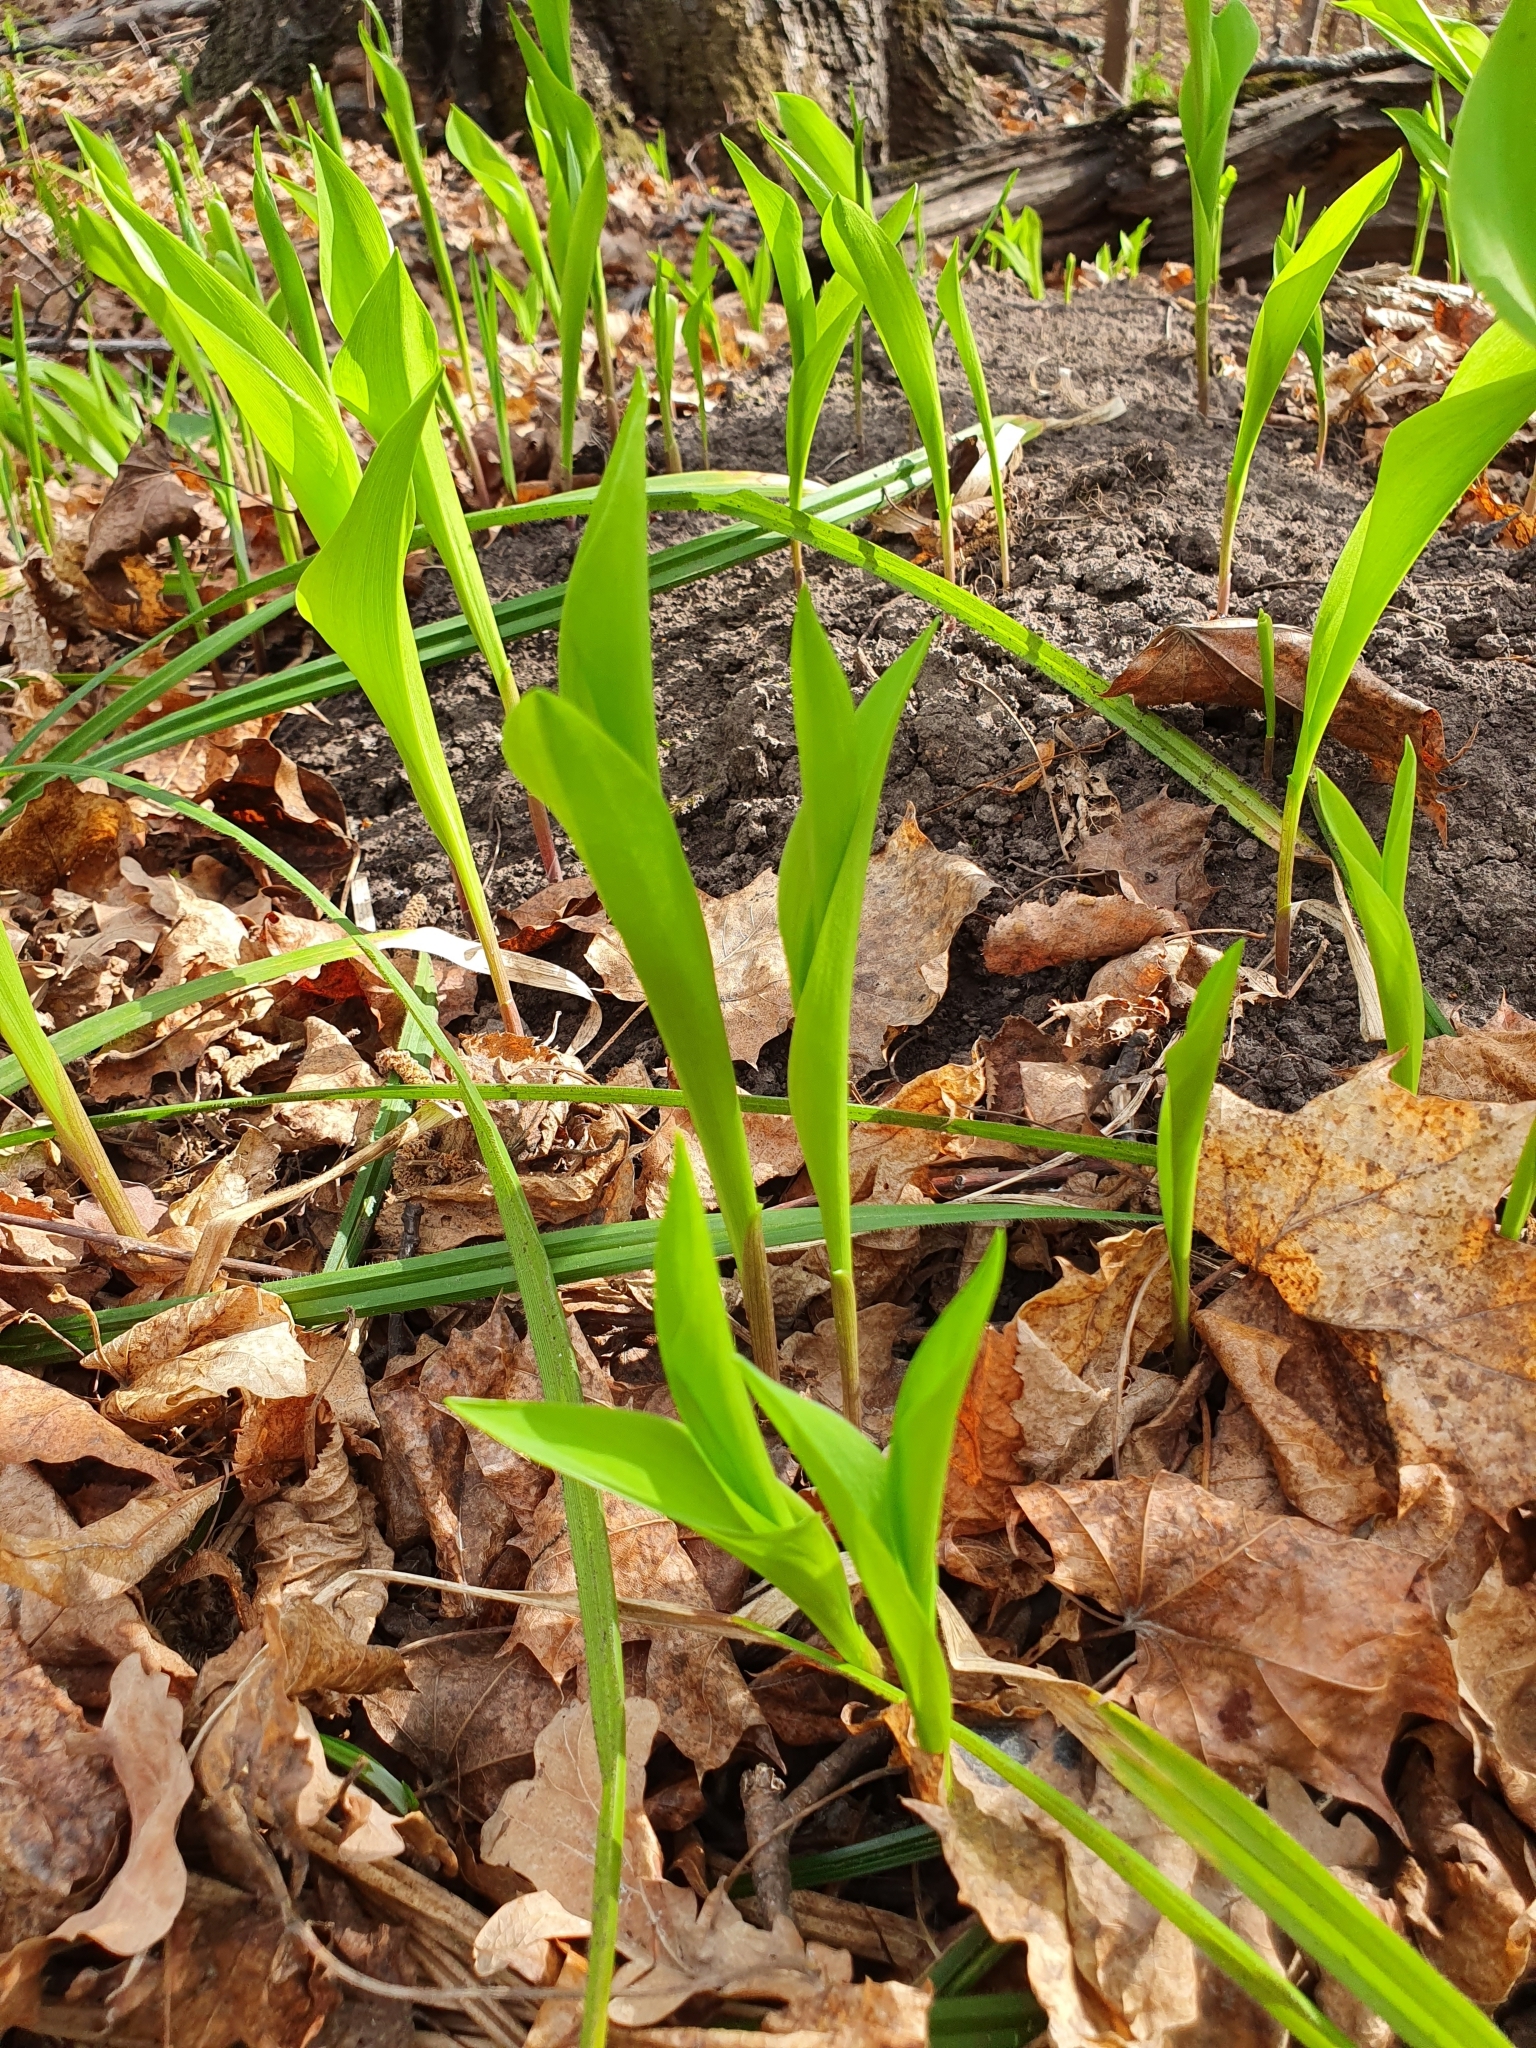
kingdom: Plantae
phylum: Tracheophyta
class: Liliopsida
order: Asparagales
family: Asparagaceae
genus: Convallaria
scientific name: Convallaria majalis
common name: Lily-of-the-valley
